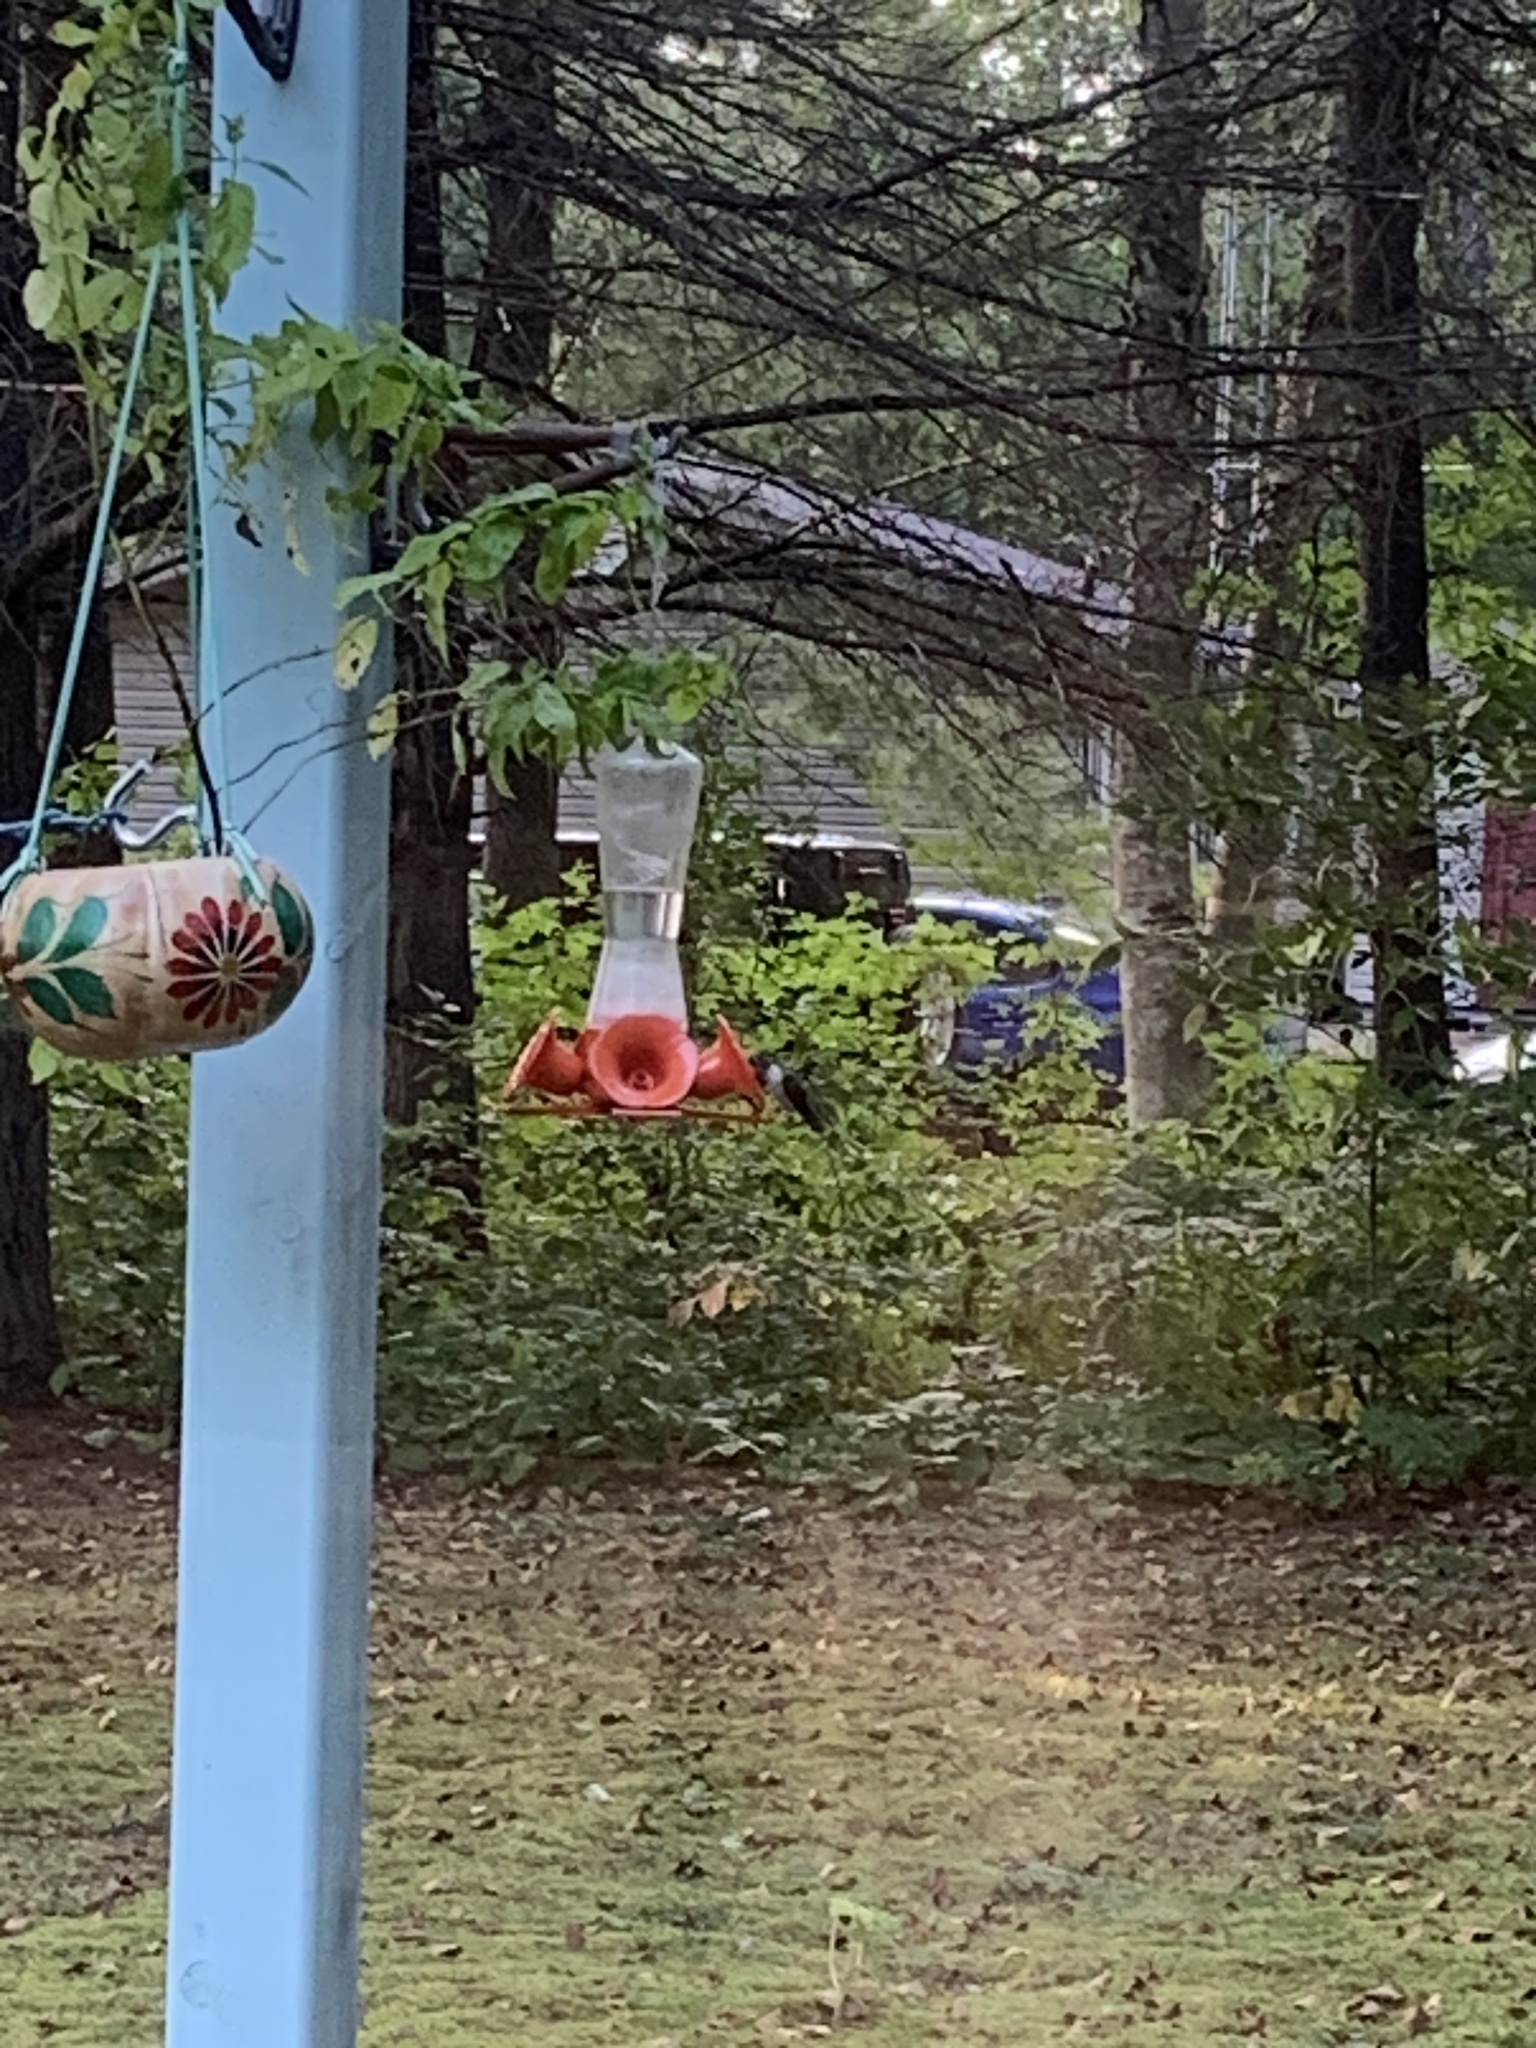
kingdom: Animalia
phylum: Chordata
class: Aves
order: Apodiformes
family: Trochilidae
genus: Archilochus
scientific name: Archilochus colubris
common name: Ruby-throated hummingbird
